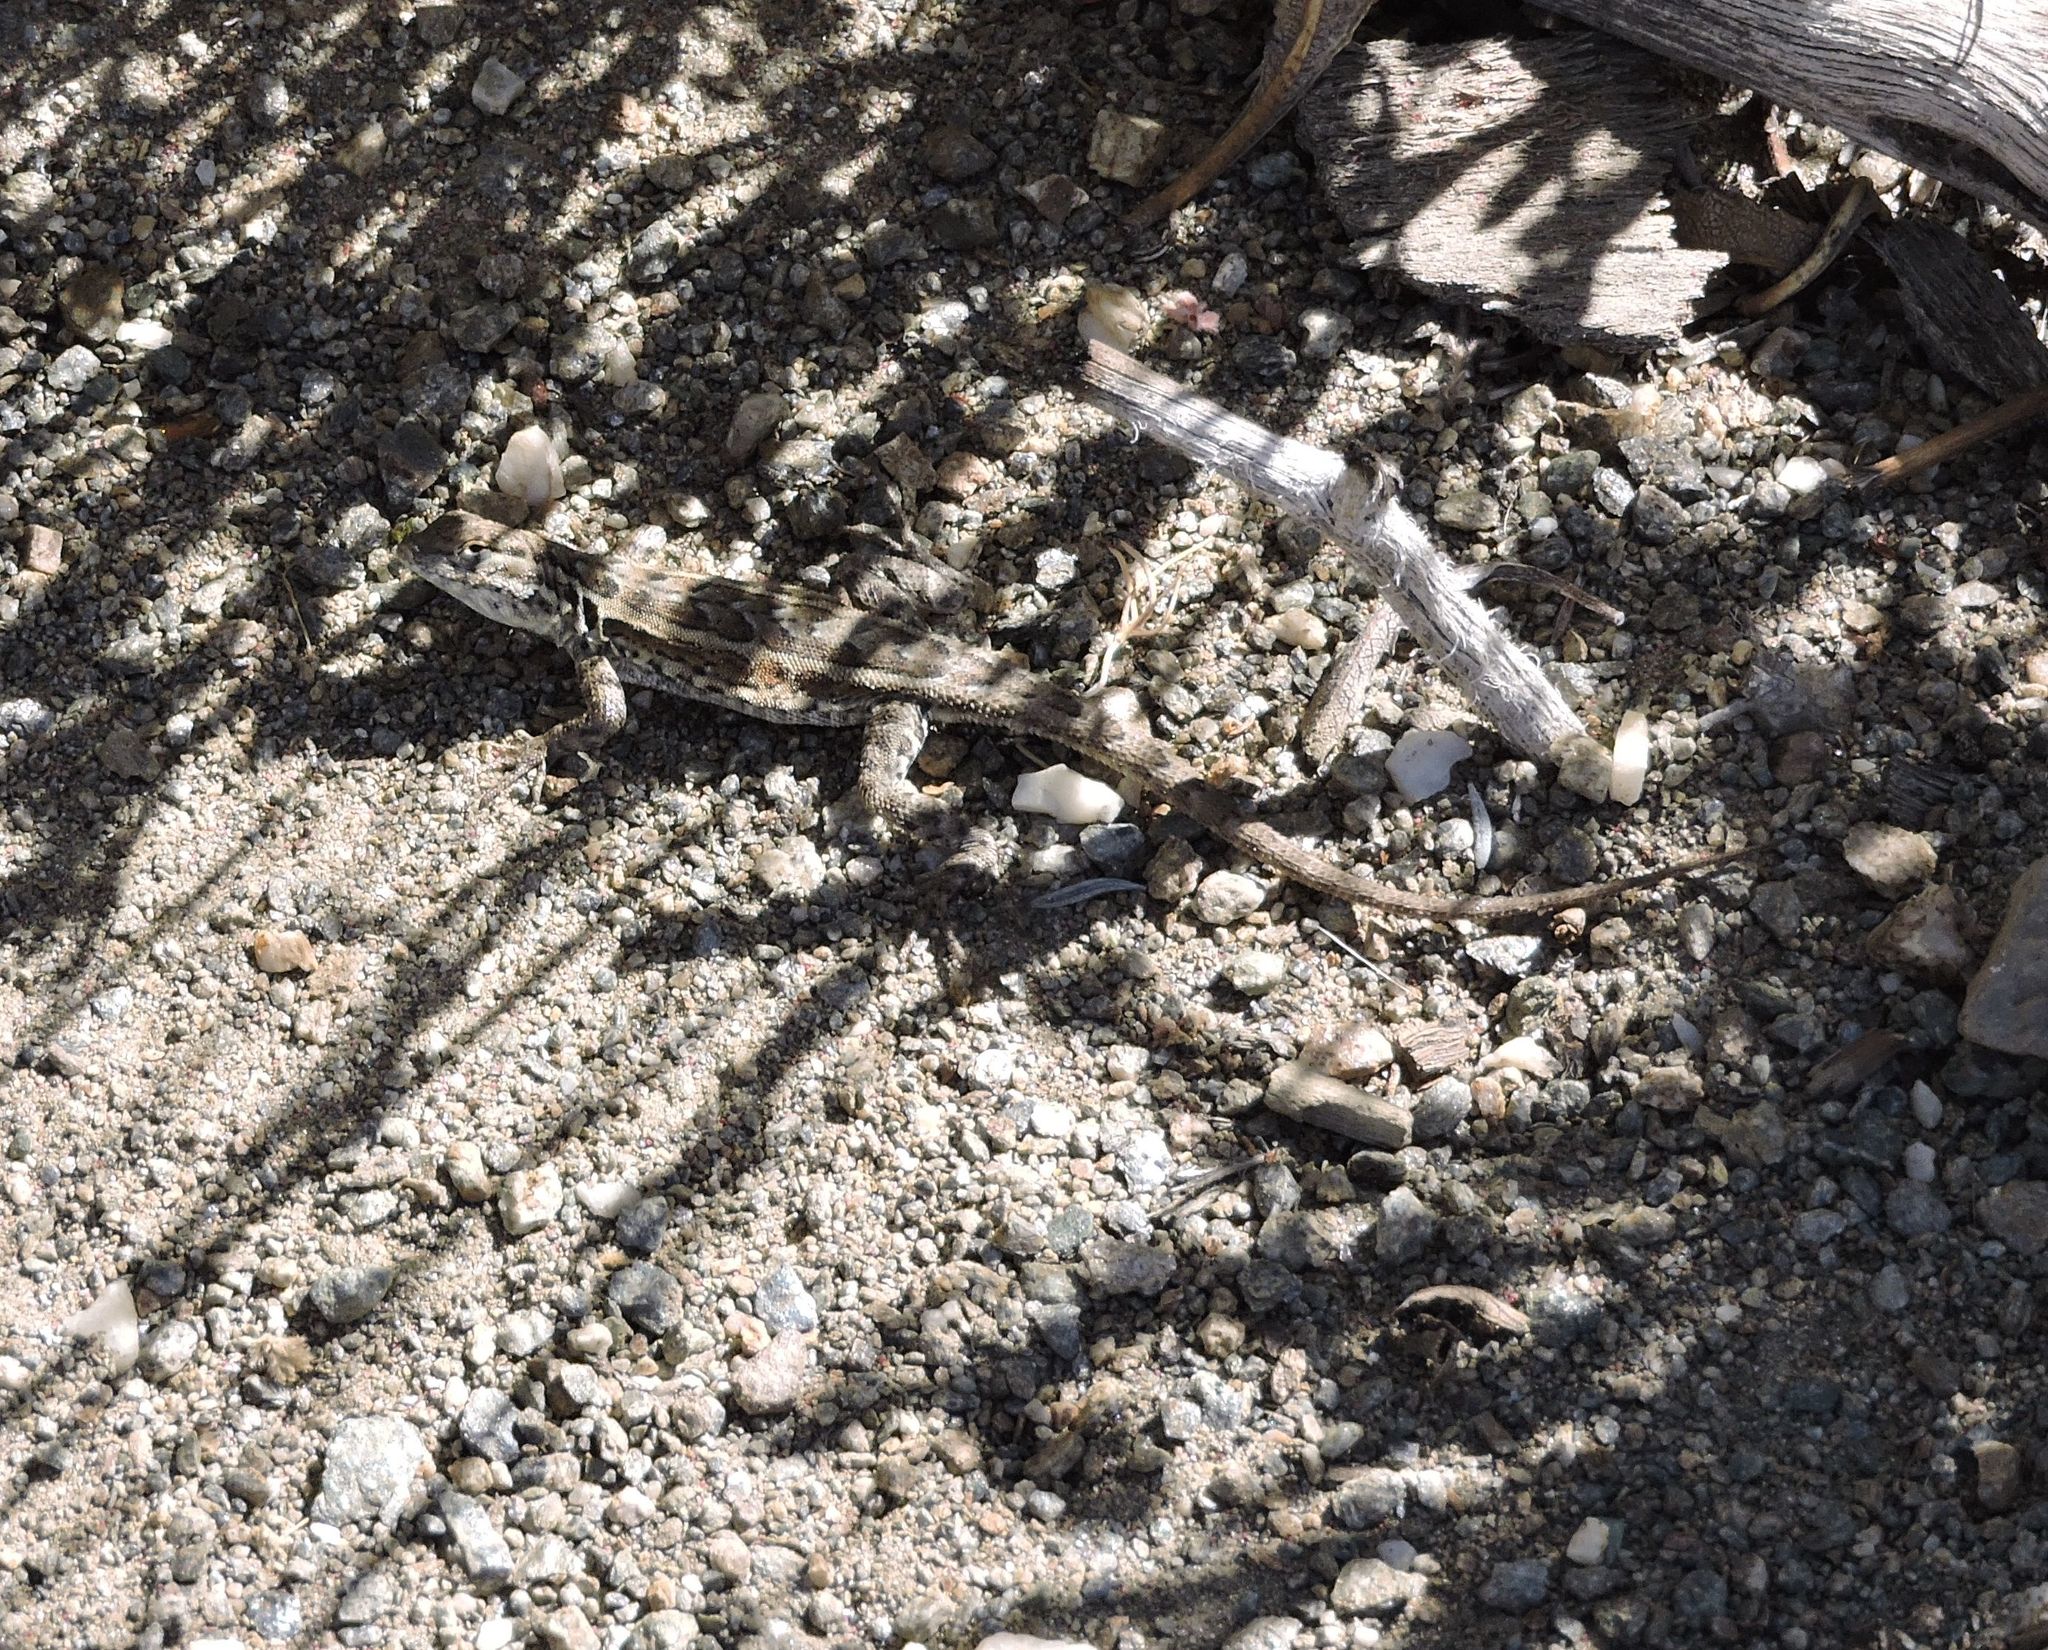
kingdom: Animalia
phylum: Chordata
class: Squamata
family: Phrynosomatidae
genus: Uta
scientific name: Uta stansburiana
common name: Side-blotched lizard
